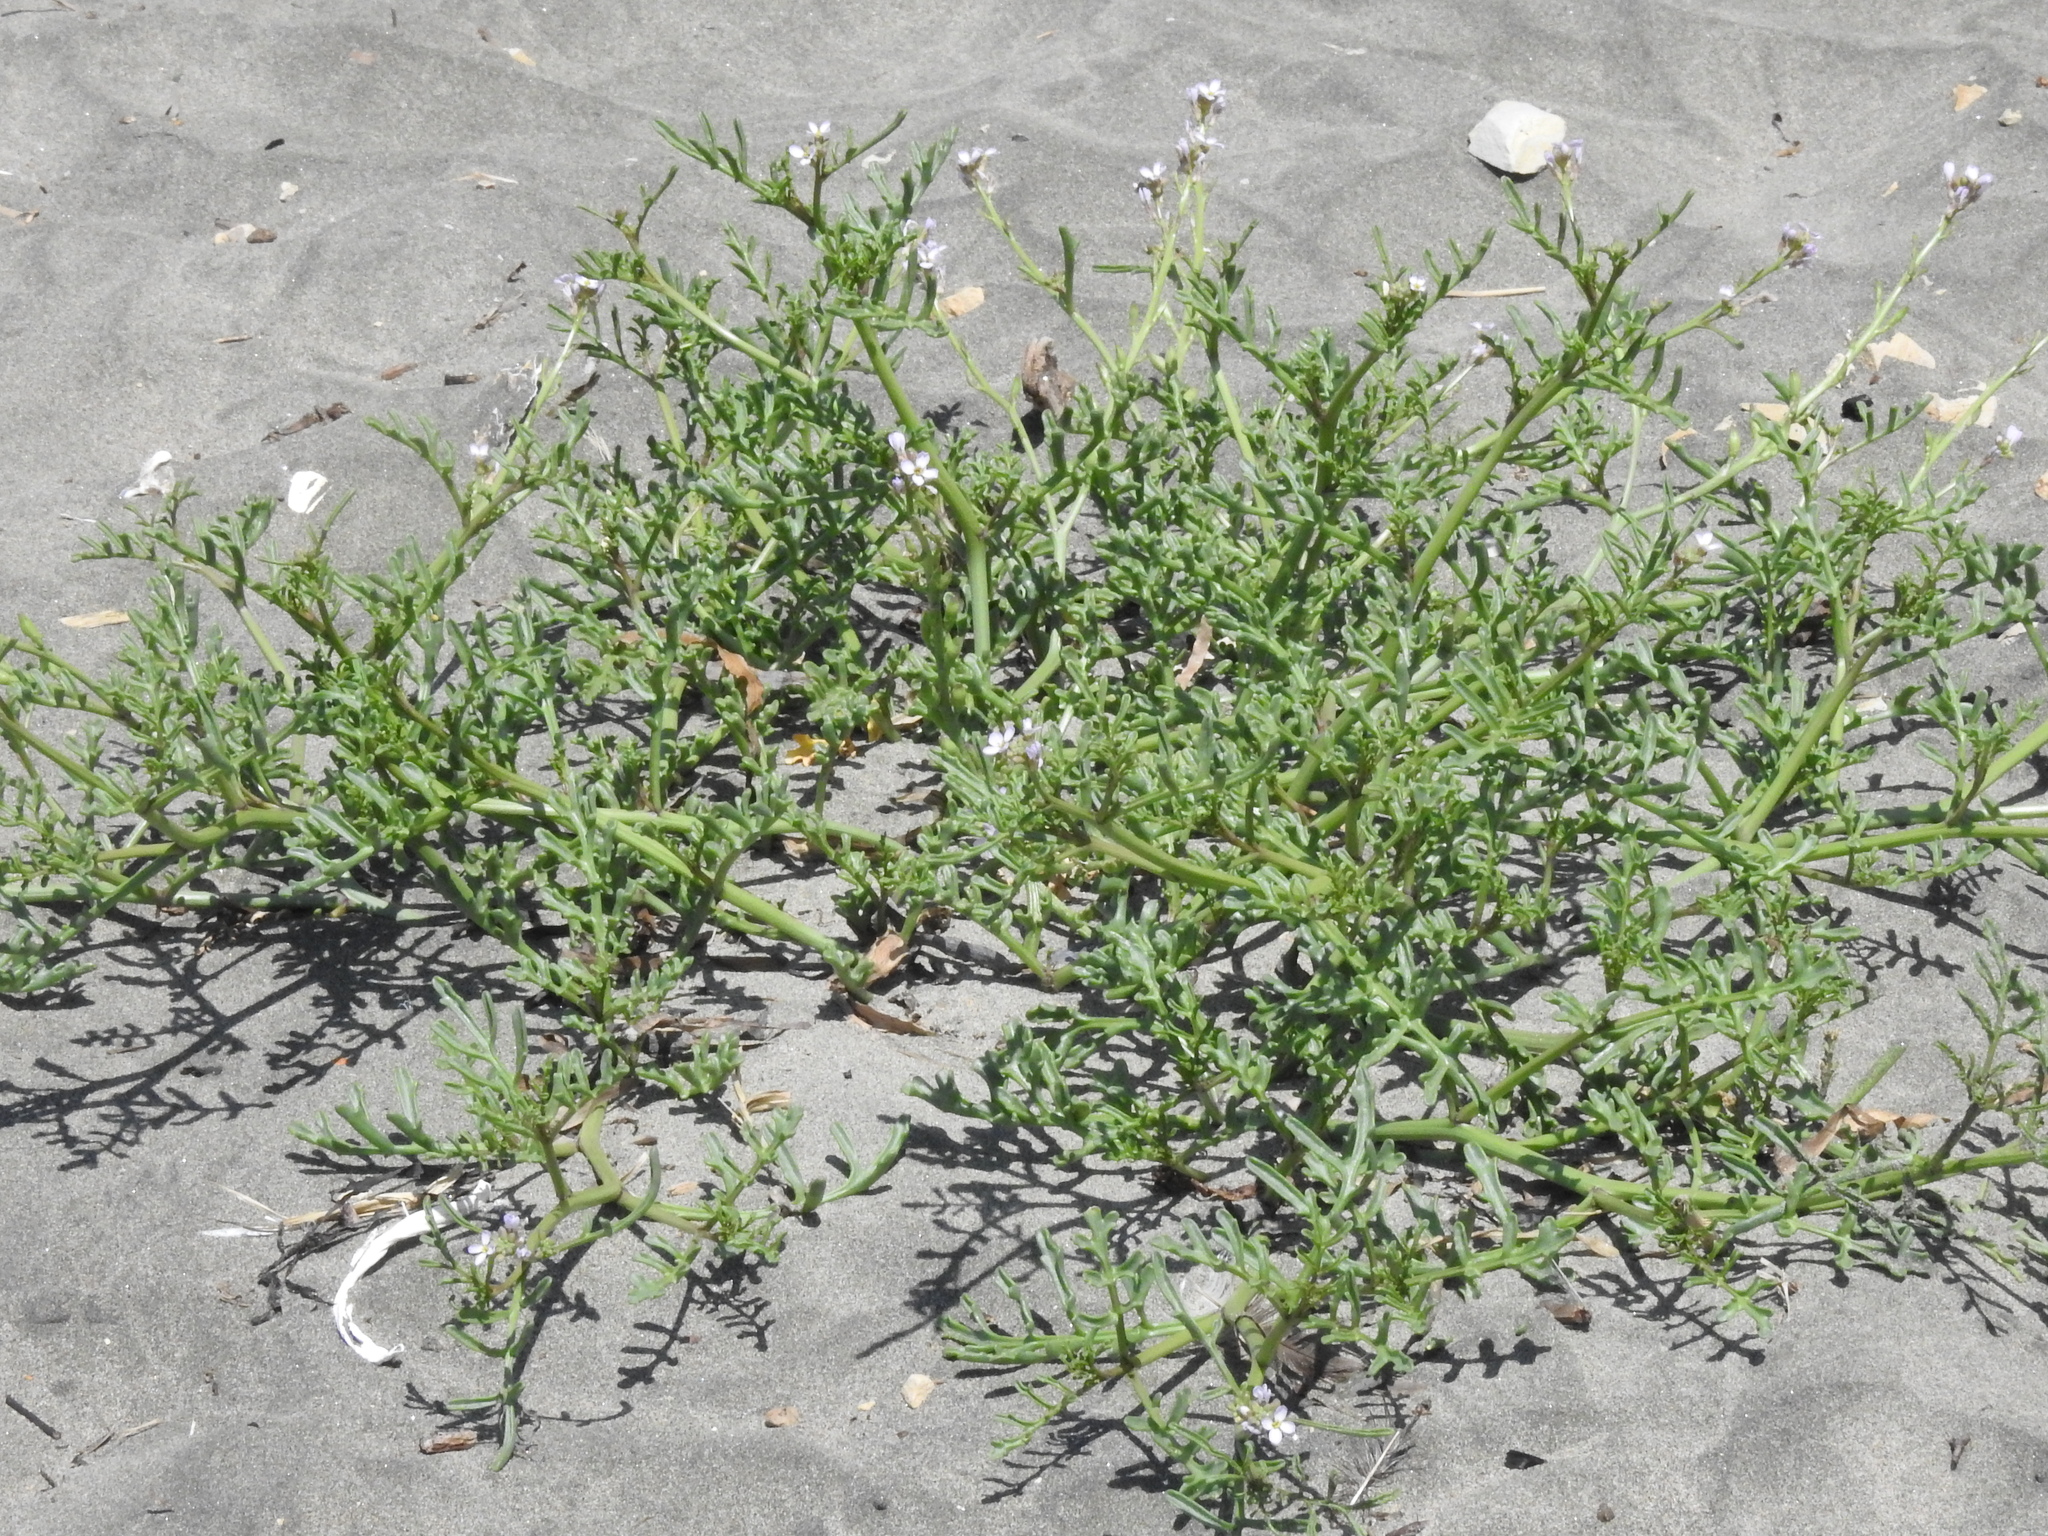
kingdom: Plantae
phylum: Tracheophyta
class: Magnoliopsida
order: Brassicales
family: Brassicaceae
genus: Cakile
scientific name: Cakile maritima
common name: Sea rocket
